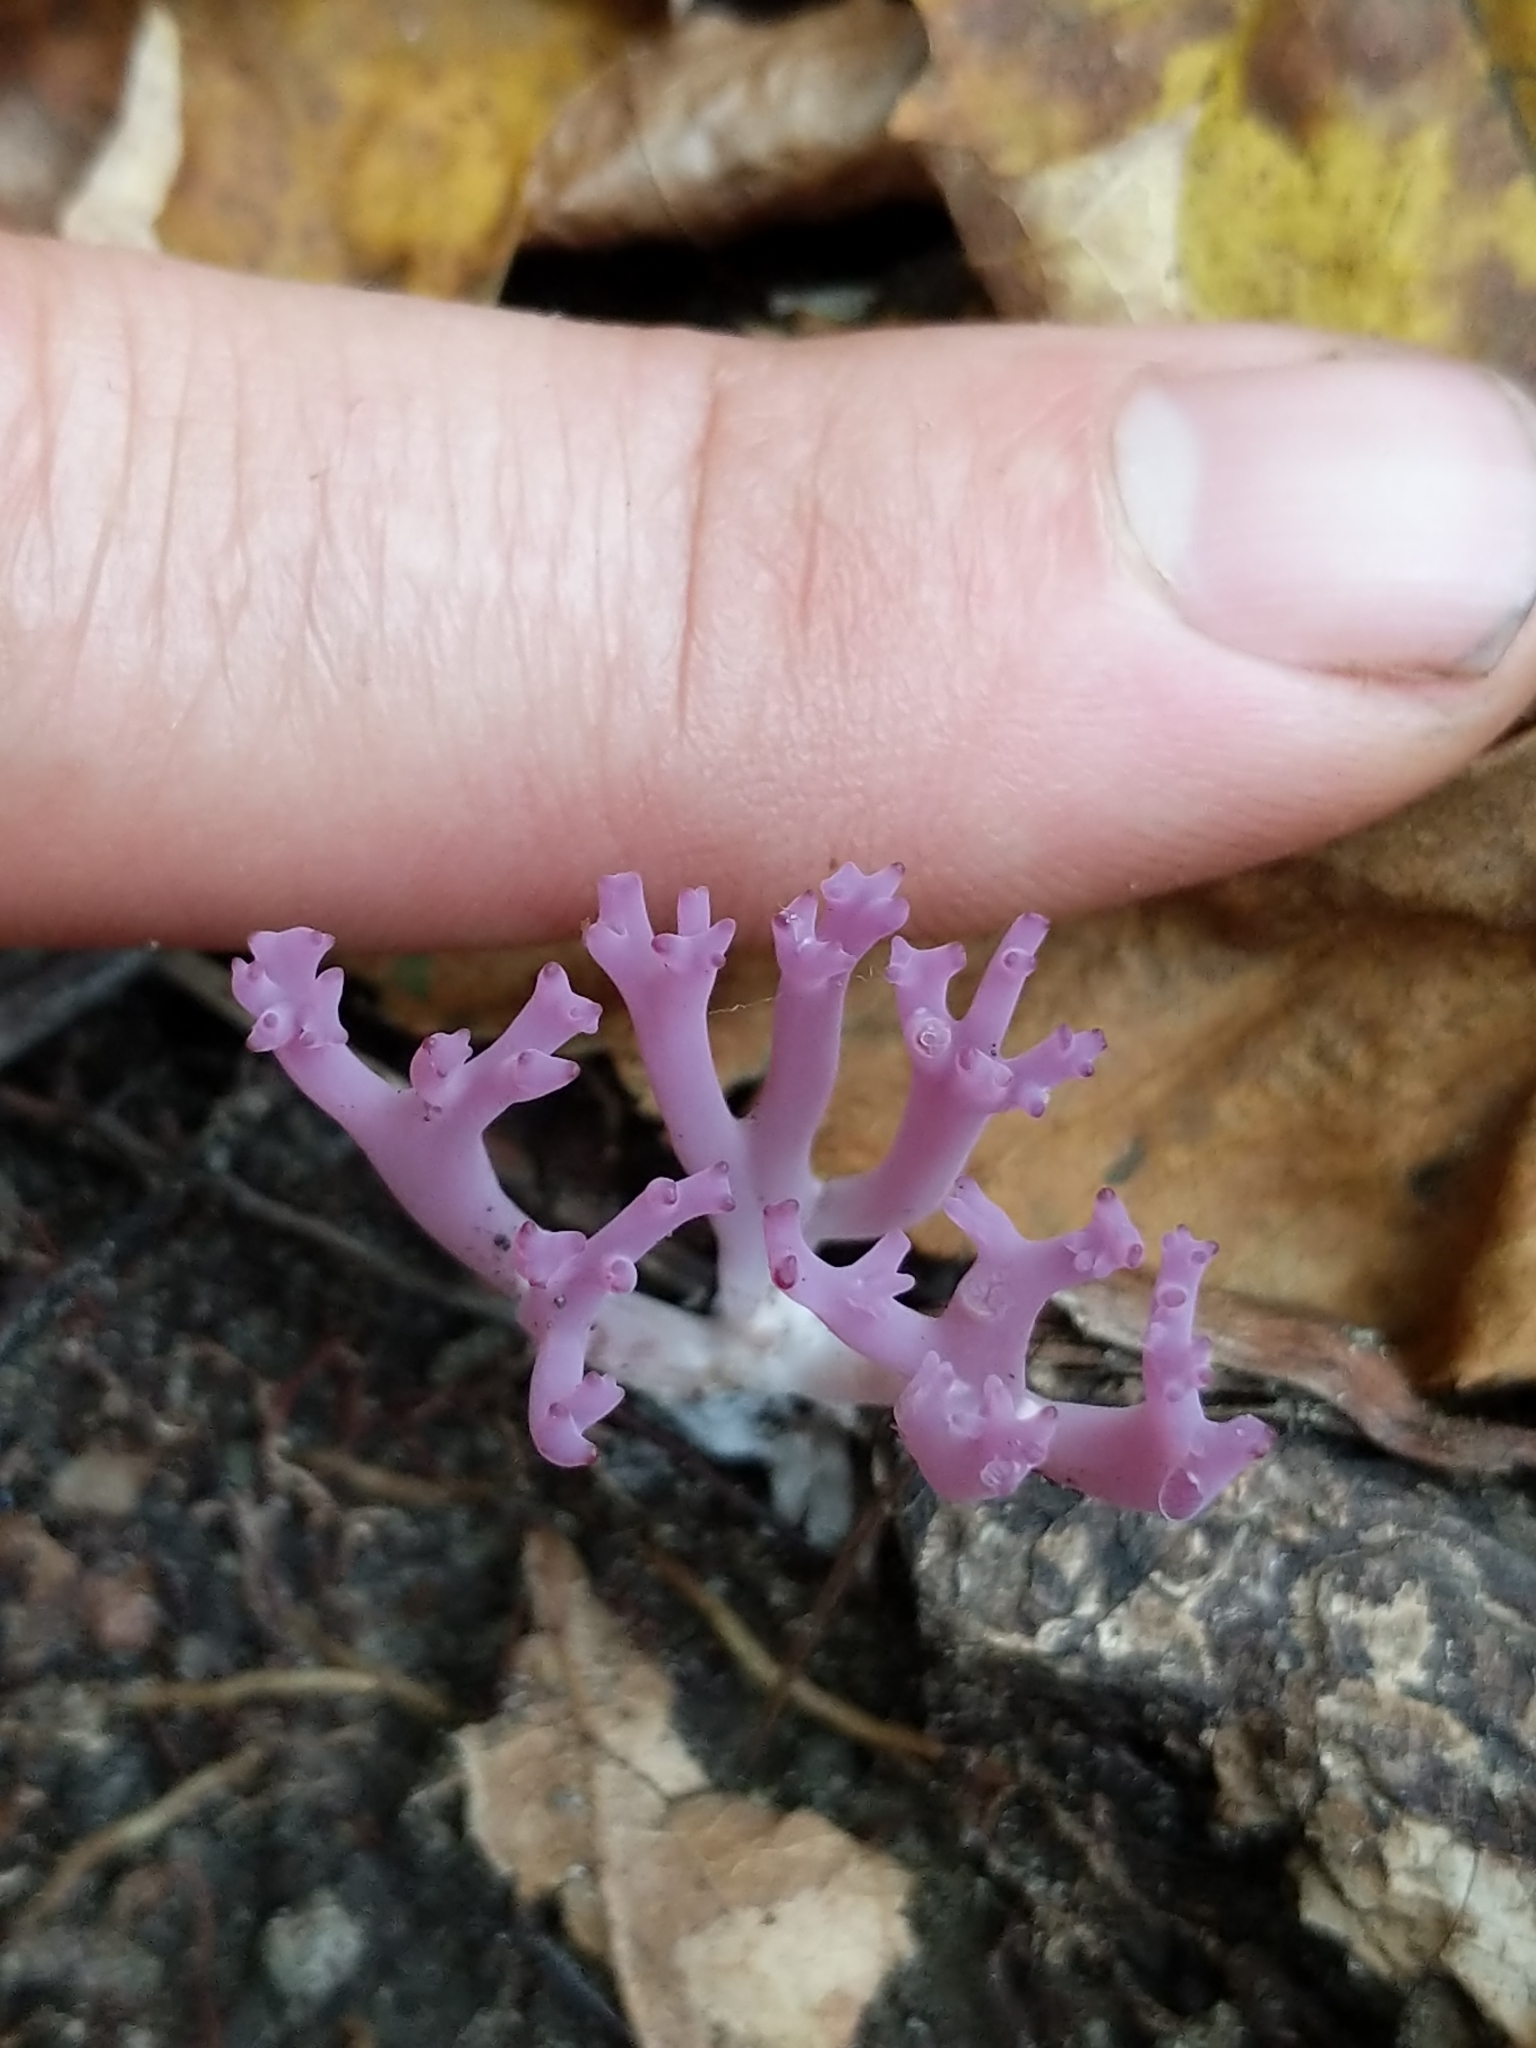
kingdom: Fungi
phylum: Basidiomycota
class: Agaricomycetes
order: Agaricales
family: Clavariaceae
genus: Clavaria
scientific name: Clavaria zollingeri
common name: Violet coral
